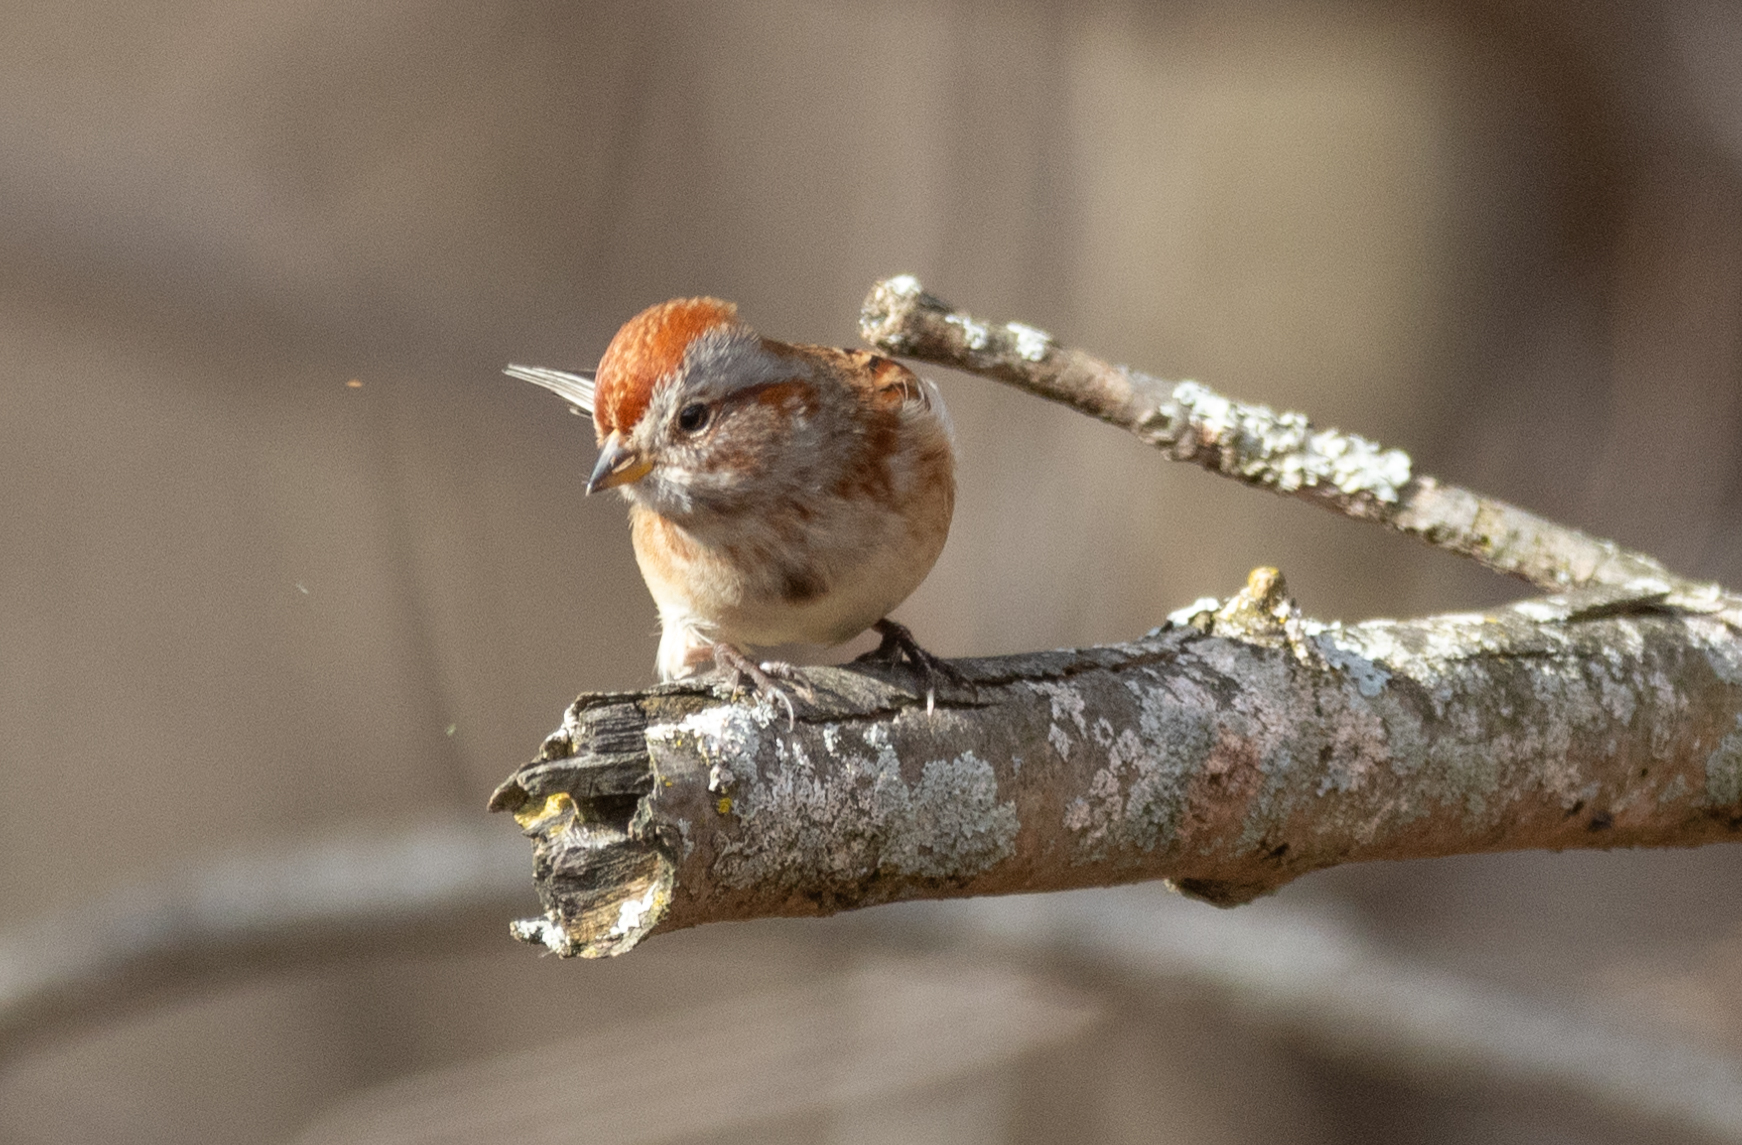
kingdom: Animalia
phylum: Chordata
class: Aves
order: Passeriformes
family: Passerellidae
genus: Spizelloides
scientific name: Spizelloides arborea
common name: American tree sparrow
